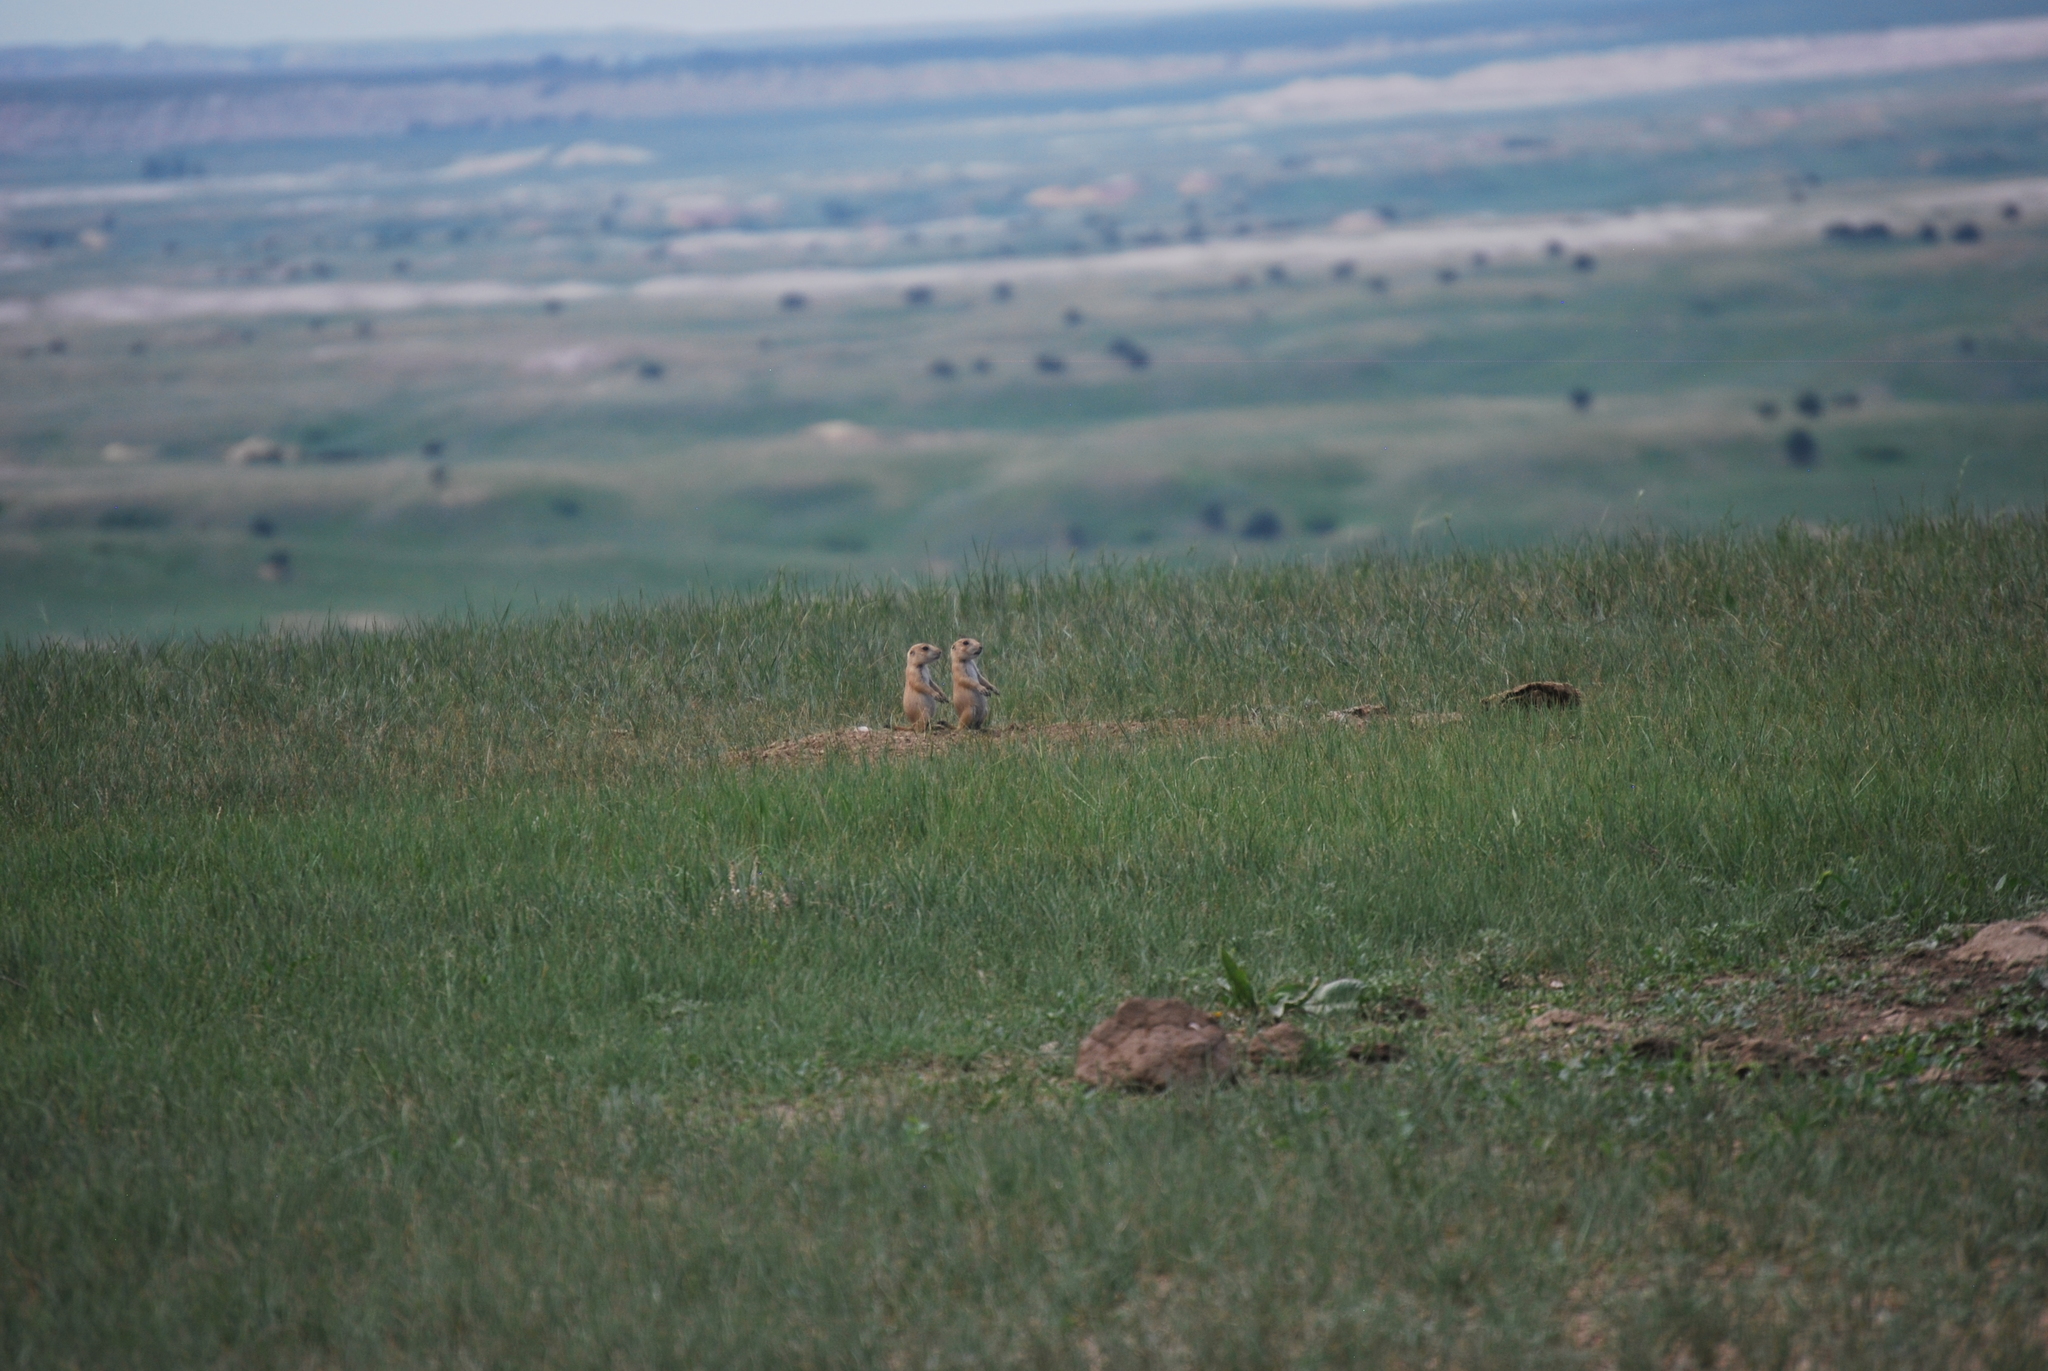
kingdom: Animalia
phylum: Chordata
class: Mammalia
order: Rodentia
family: Sciuridae
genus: Cynomys
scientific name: Cynomys ludovicianus
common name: Black-tailed prairie dog
